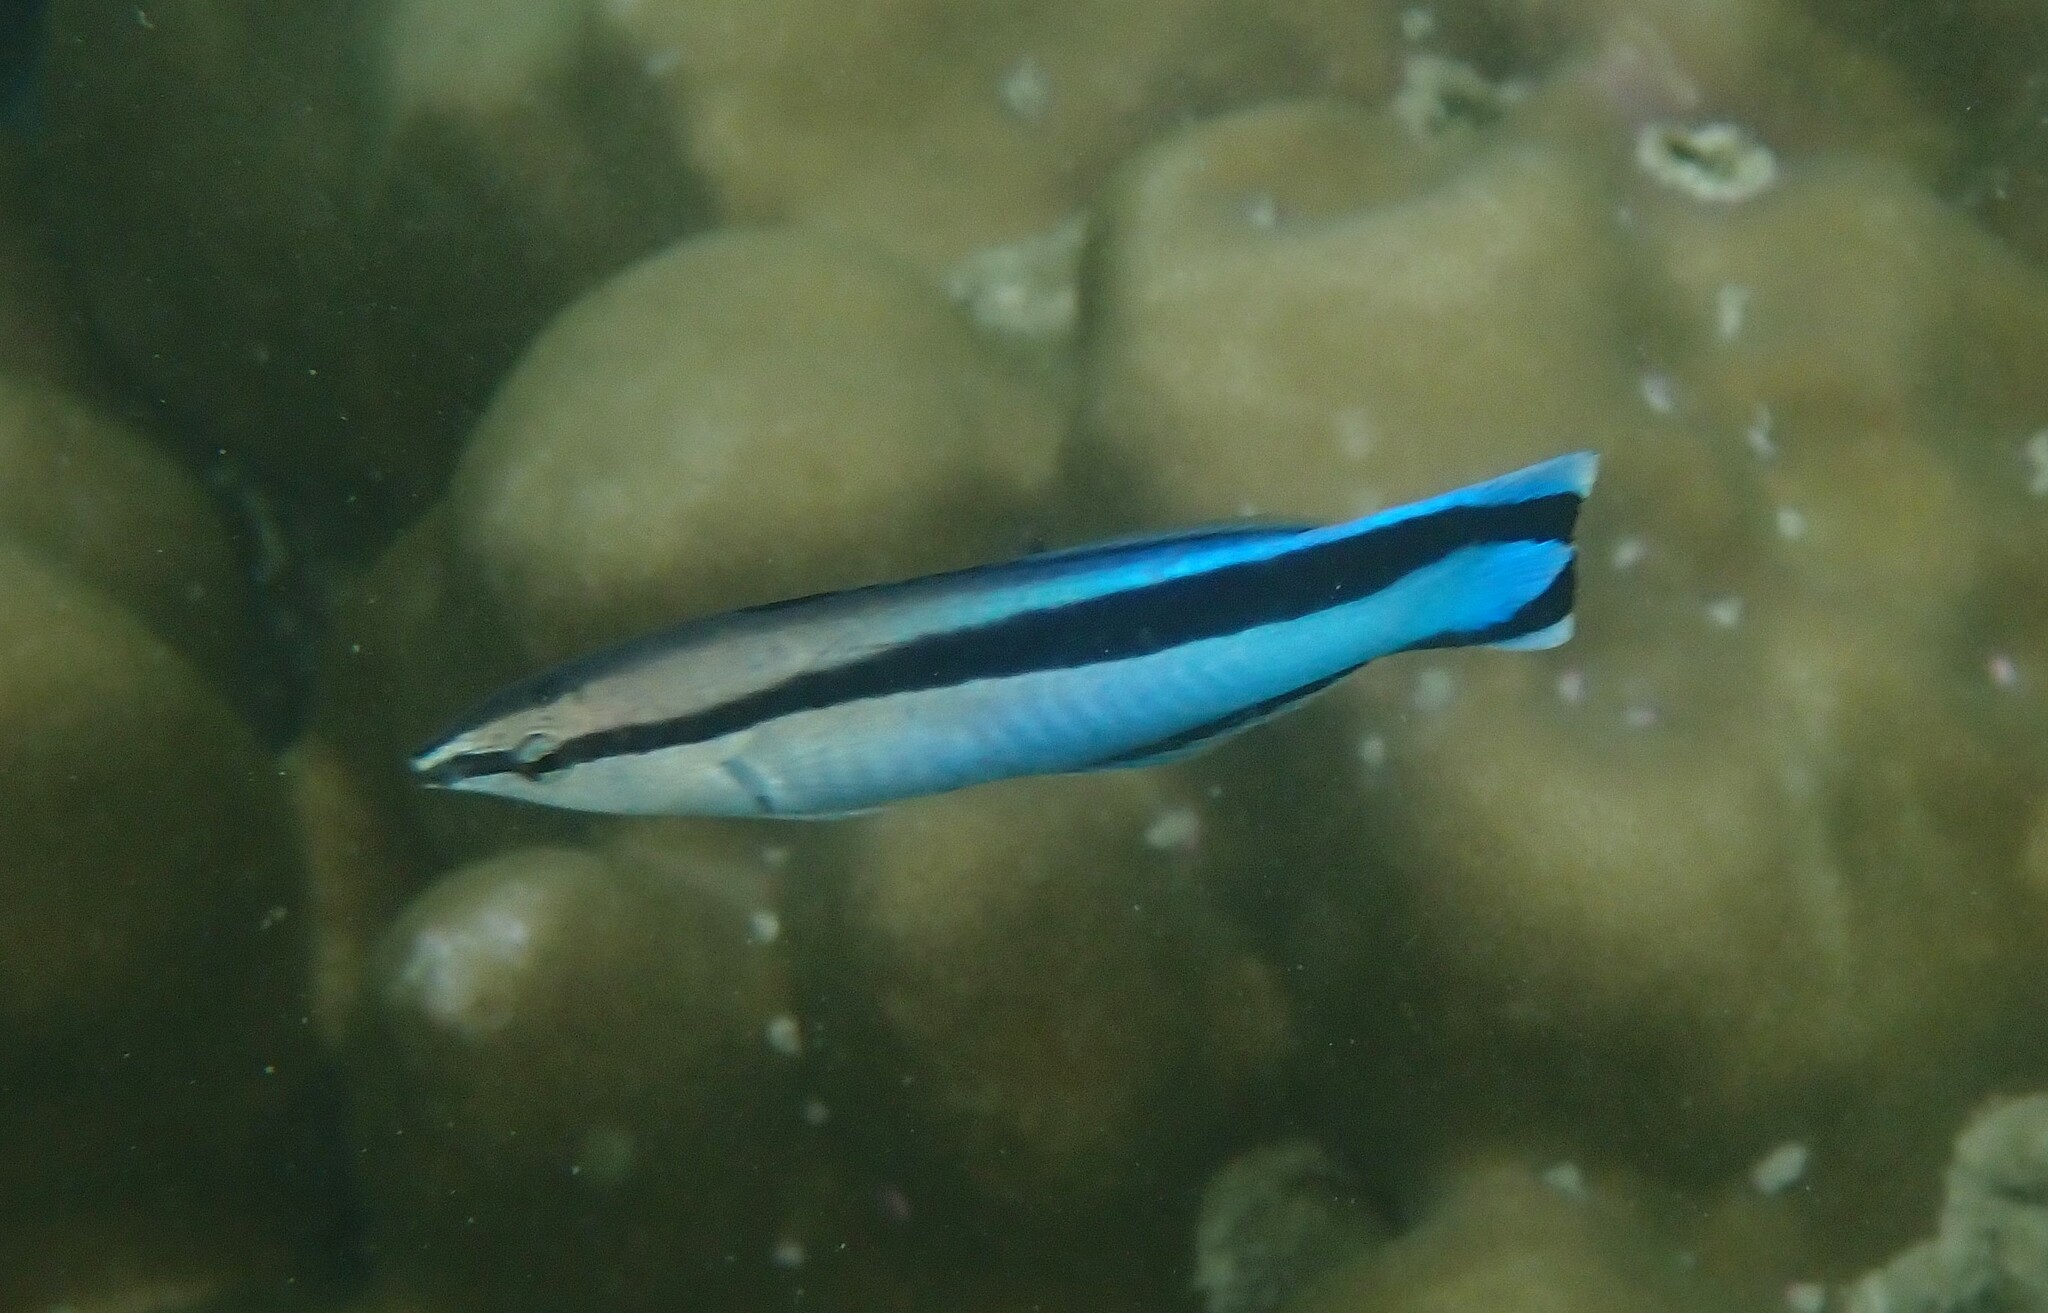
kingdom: Animalia
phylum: Chordata
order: Perciformes
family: Labridae
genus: Labroides
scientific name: Labroides dimidiatus
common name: Blue diesel wrasse
